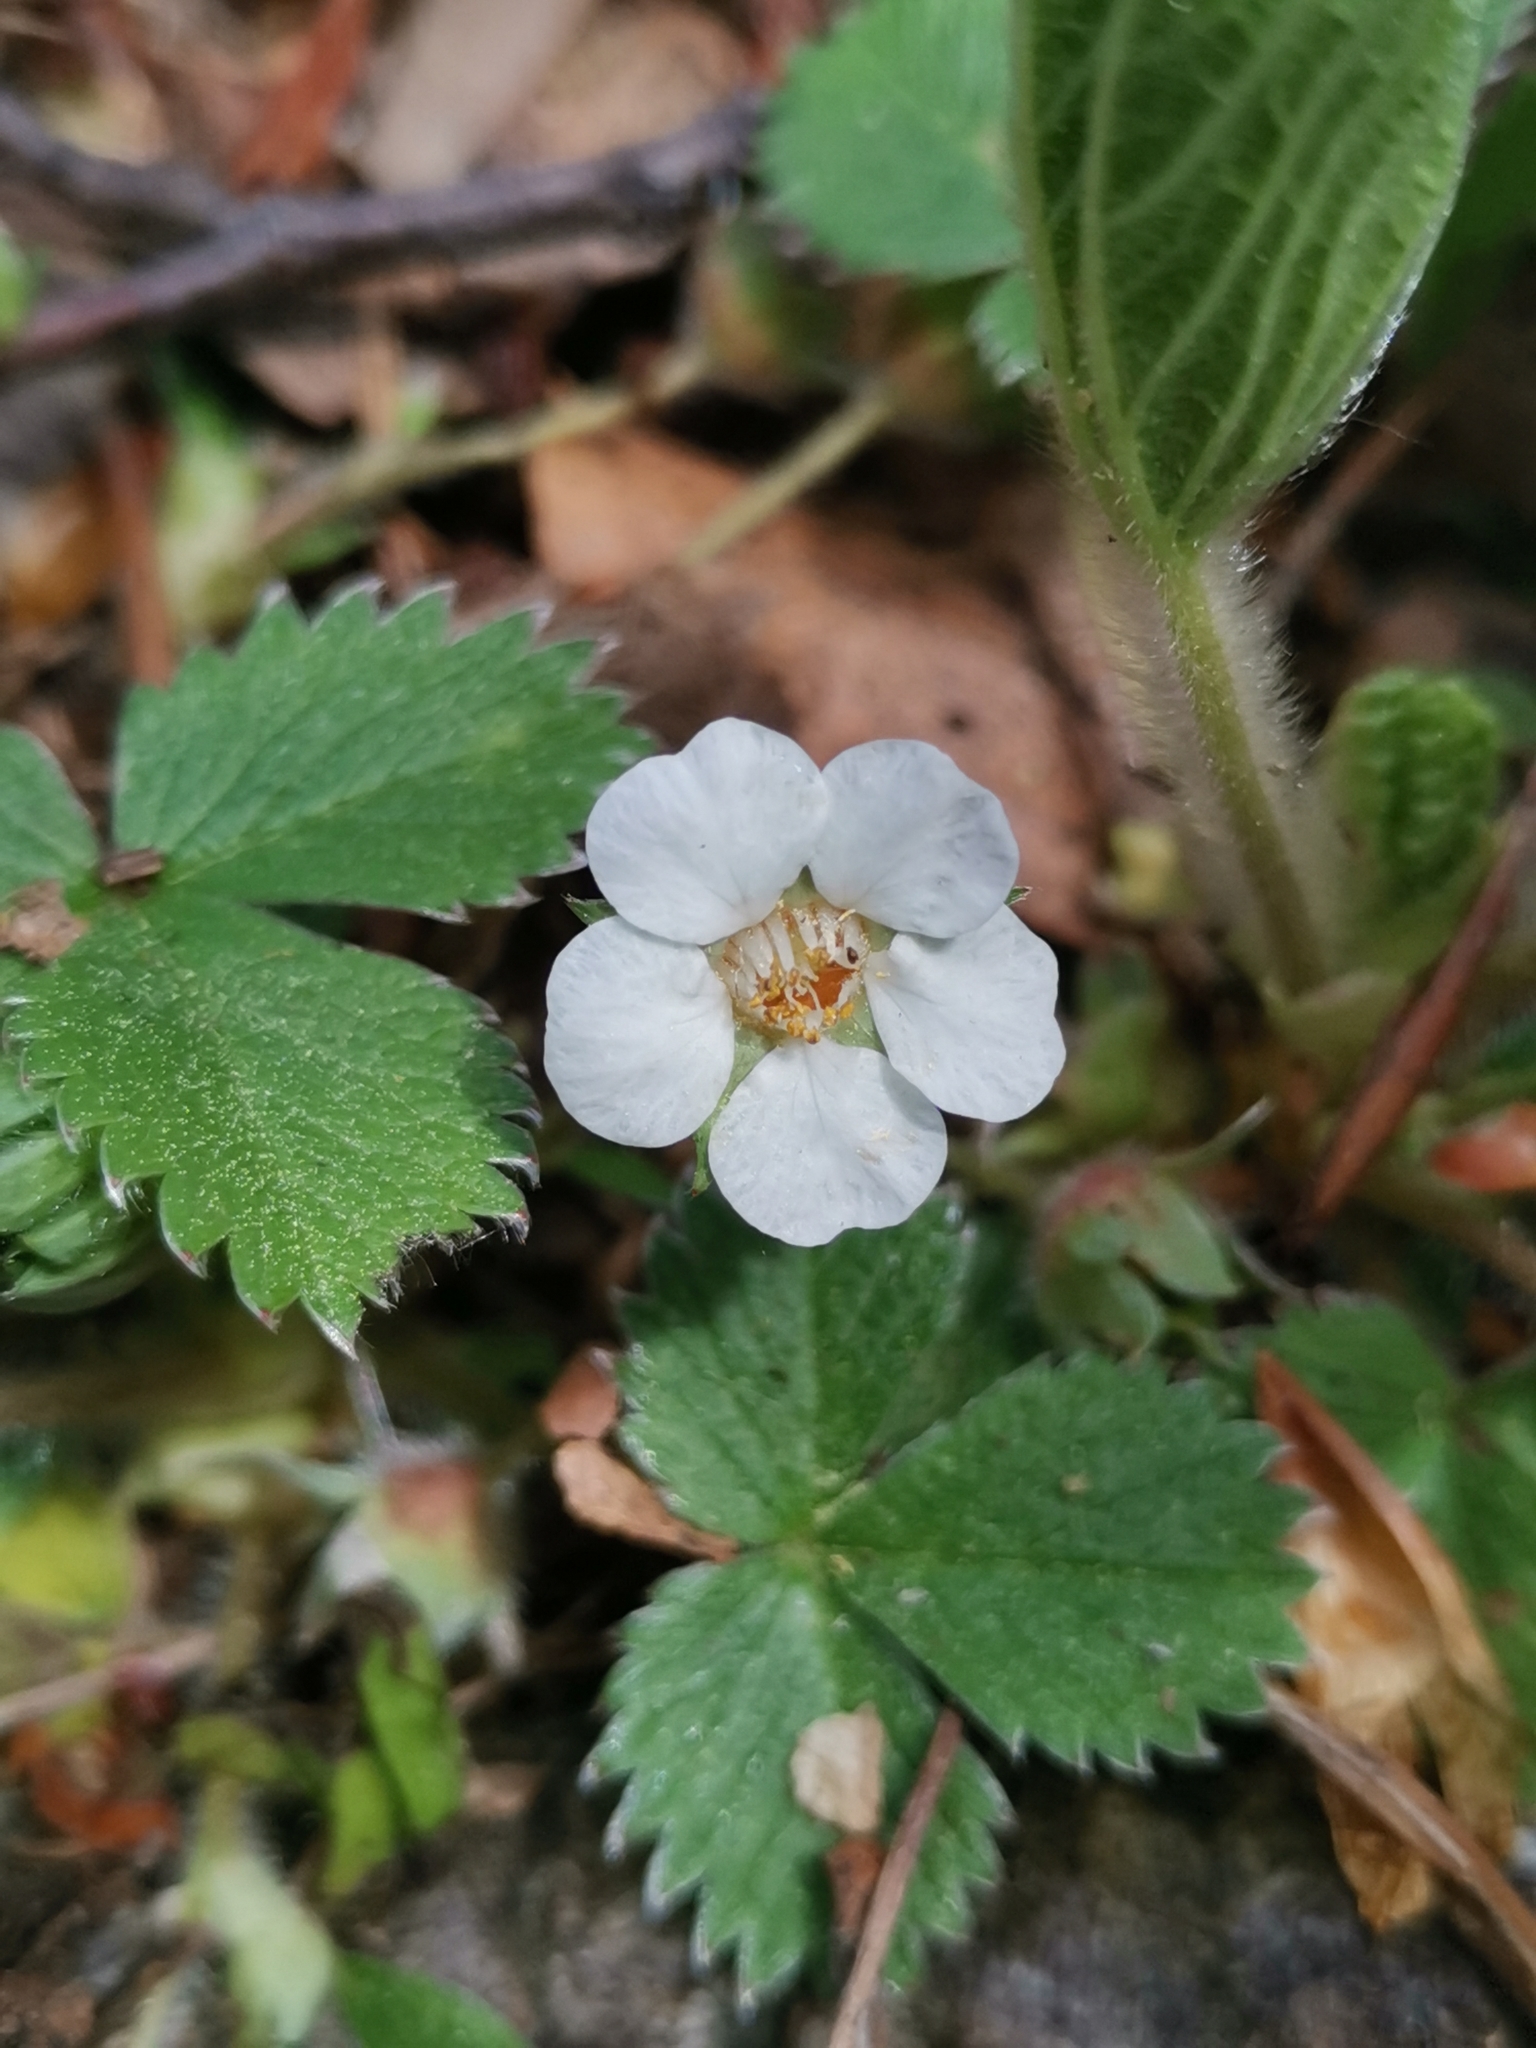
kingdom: Plantae
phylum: Tracheophyta
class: Magnoliopsida
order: Rosales
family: Rosaceae
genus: Potentilla
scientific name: Potentilla carniolica
